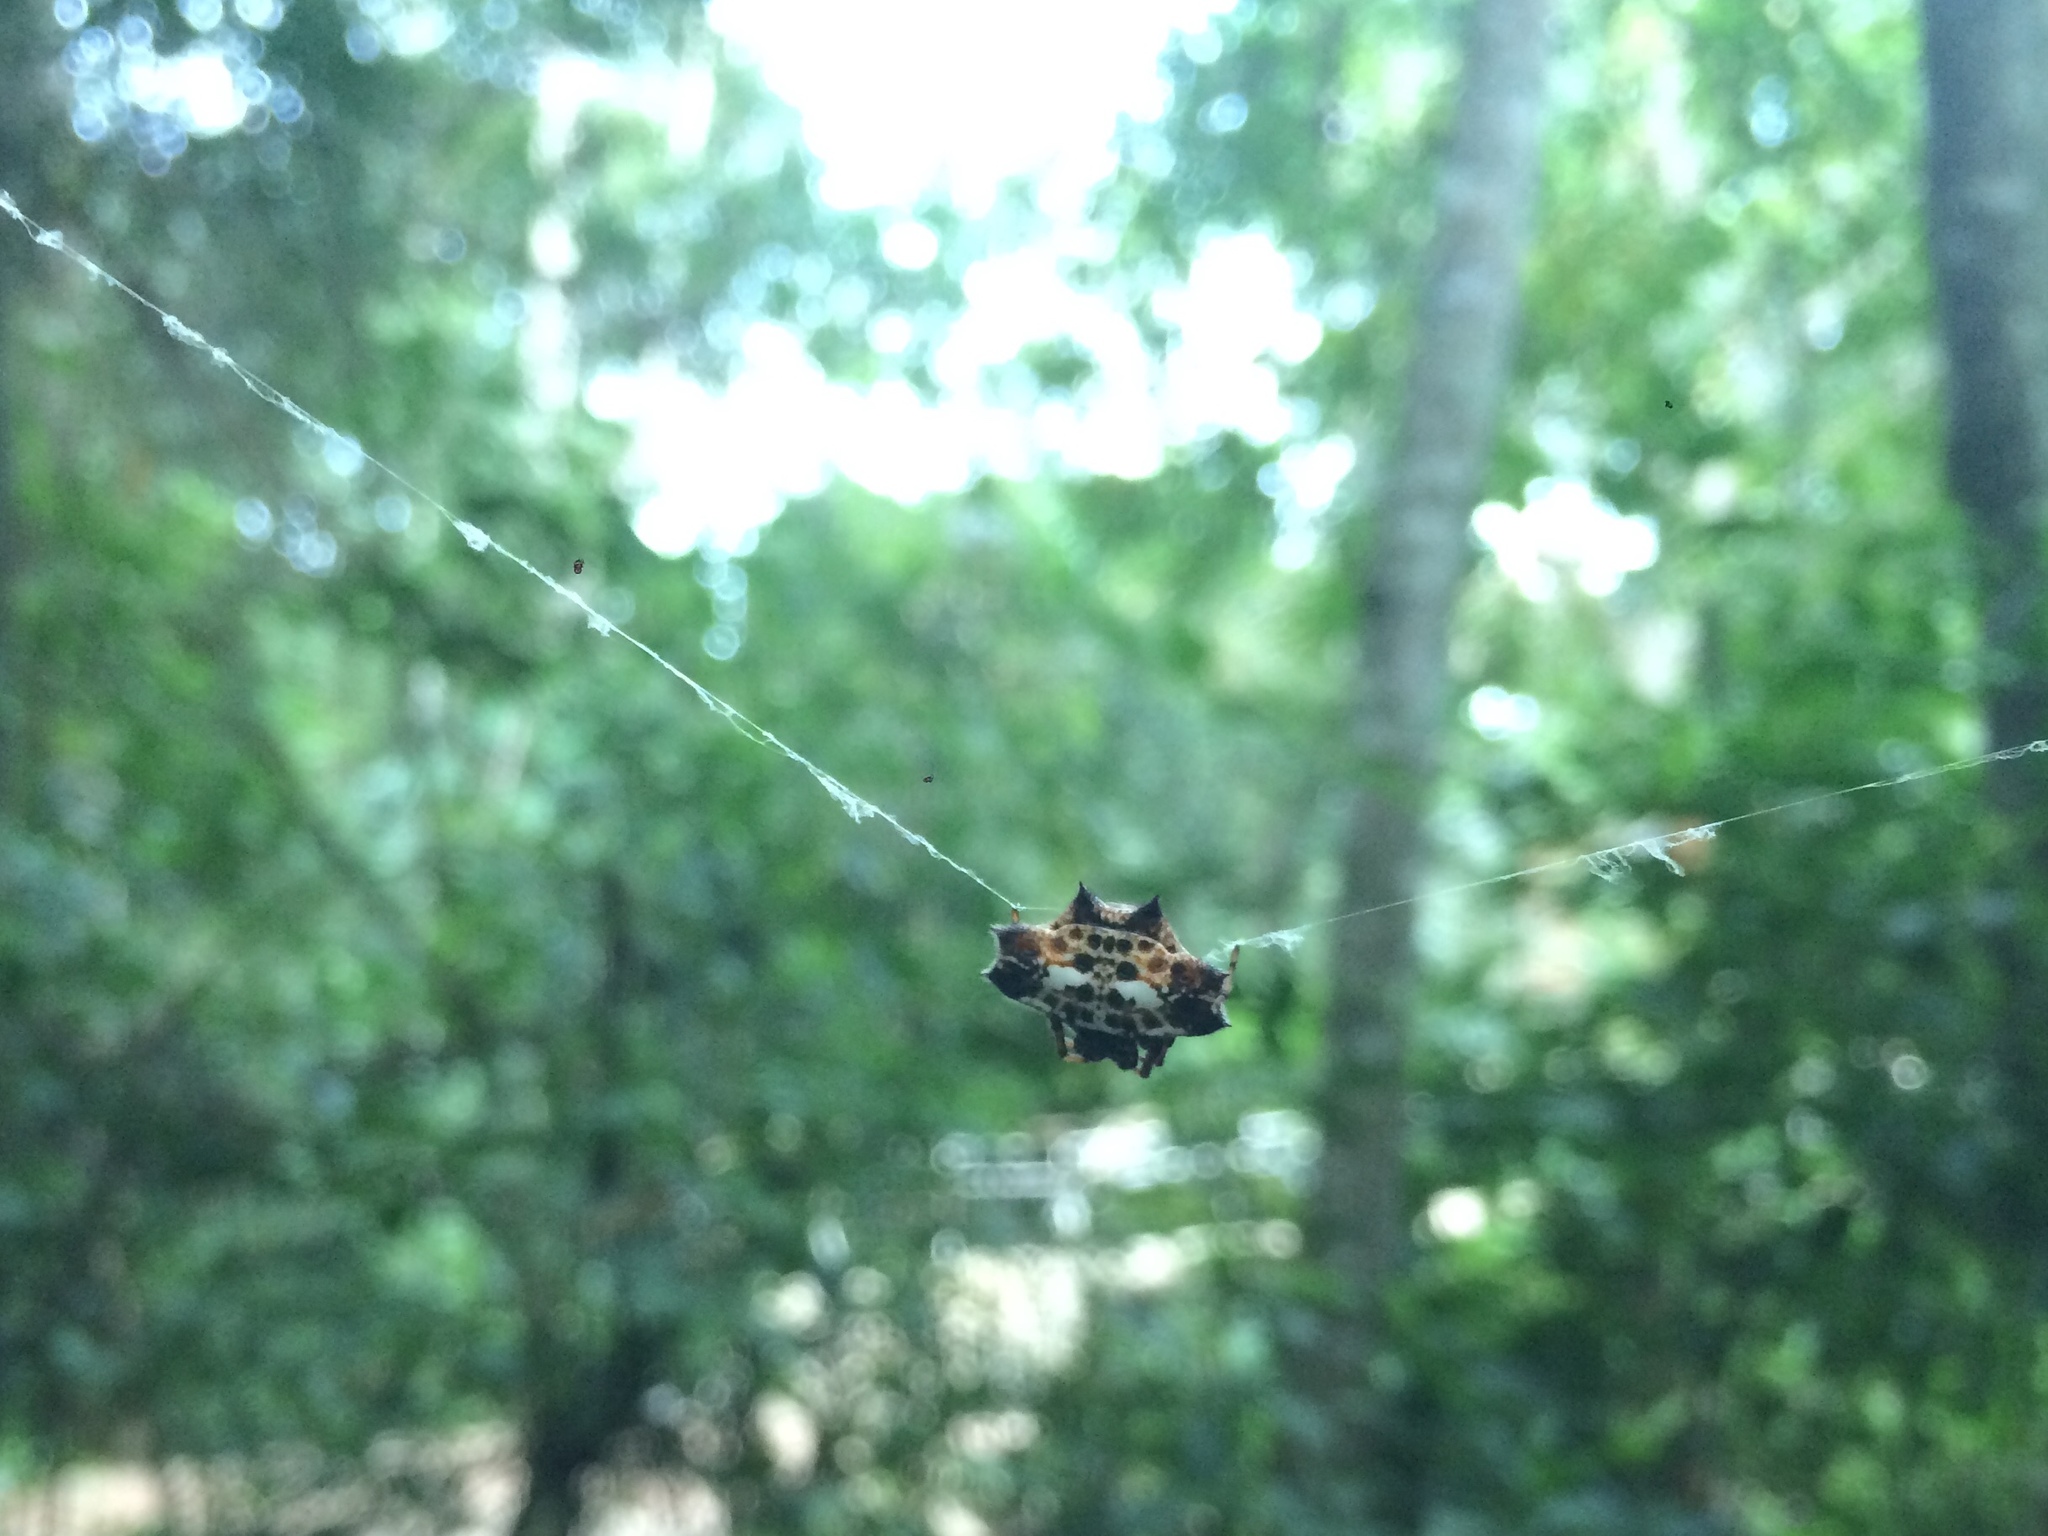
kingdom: Animalia
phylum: Arthropoda
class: Arachnida
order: Araneae
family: Araneidae
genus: Gasteracantha
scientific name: Gasteracantha cancriformis
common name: Orb weavers
